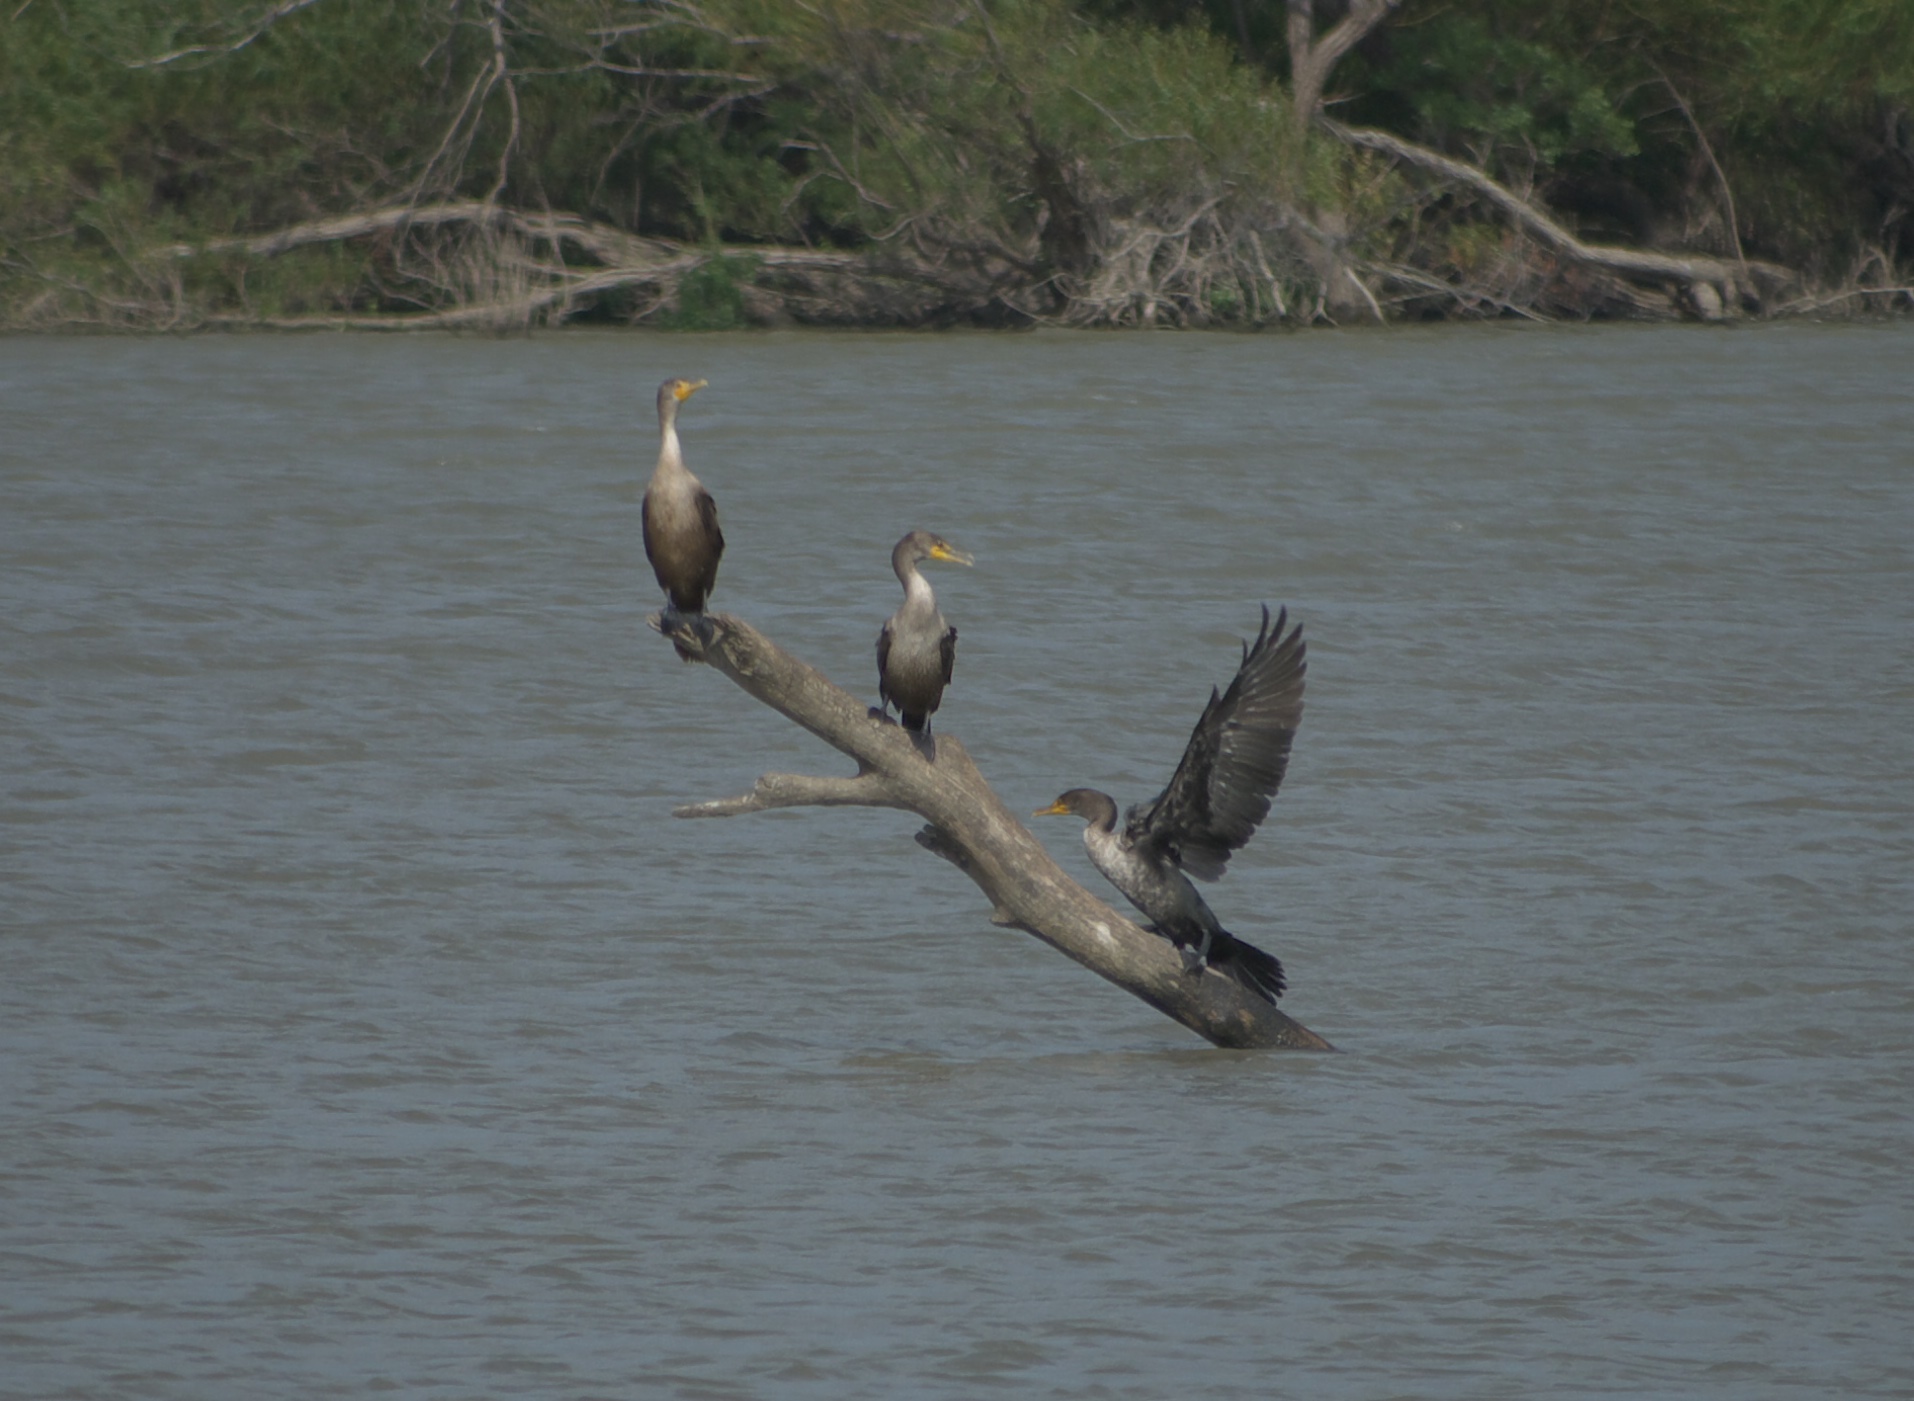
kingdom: Animalia
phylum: Chordata
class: Aves
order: Suliformes
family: Phalacrocoracidae
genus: Phalacrocorax
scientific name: Phalacrocorax auritus
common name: Double-crested cormorant
